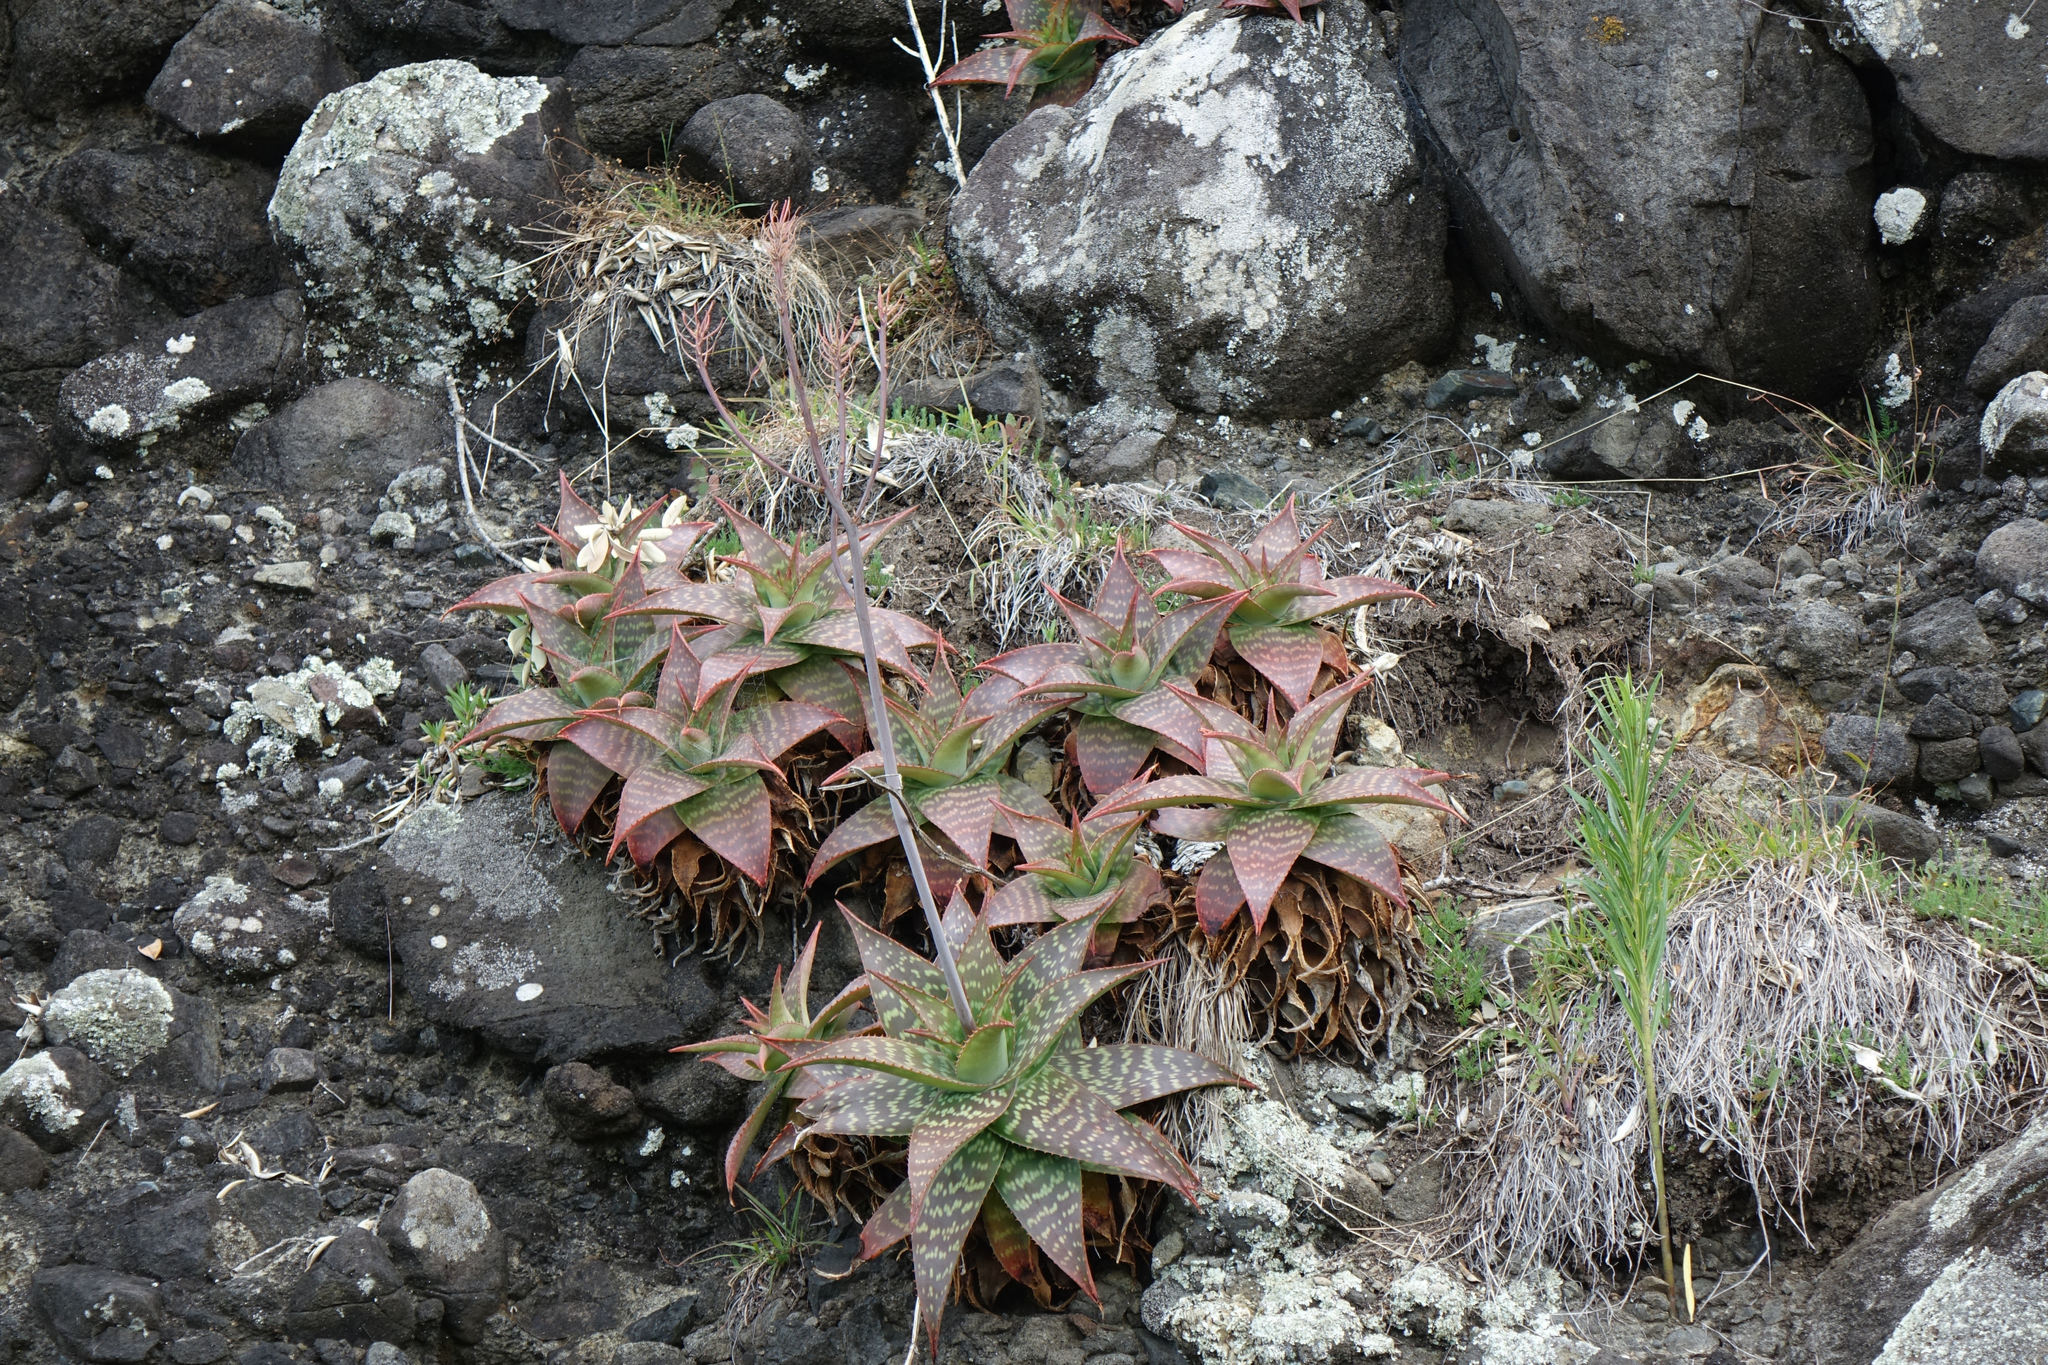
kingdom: Plantae
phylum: Tracheophyta
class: Liliopsida
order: Asparagales
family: Asphodelaceae
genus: Aloe
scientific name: Aloe maculata
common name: Broadleaf aloe
